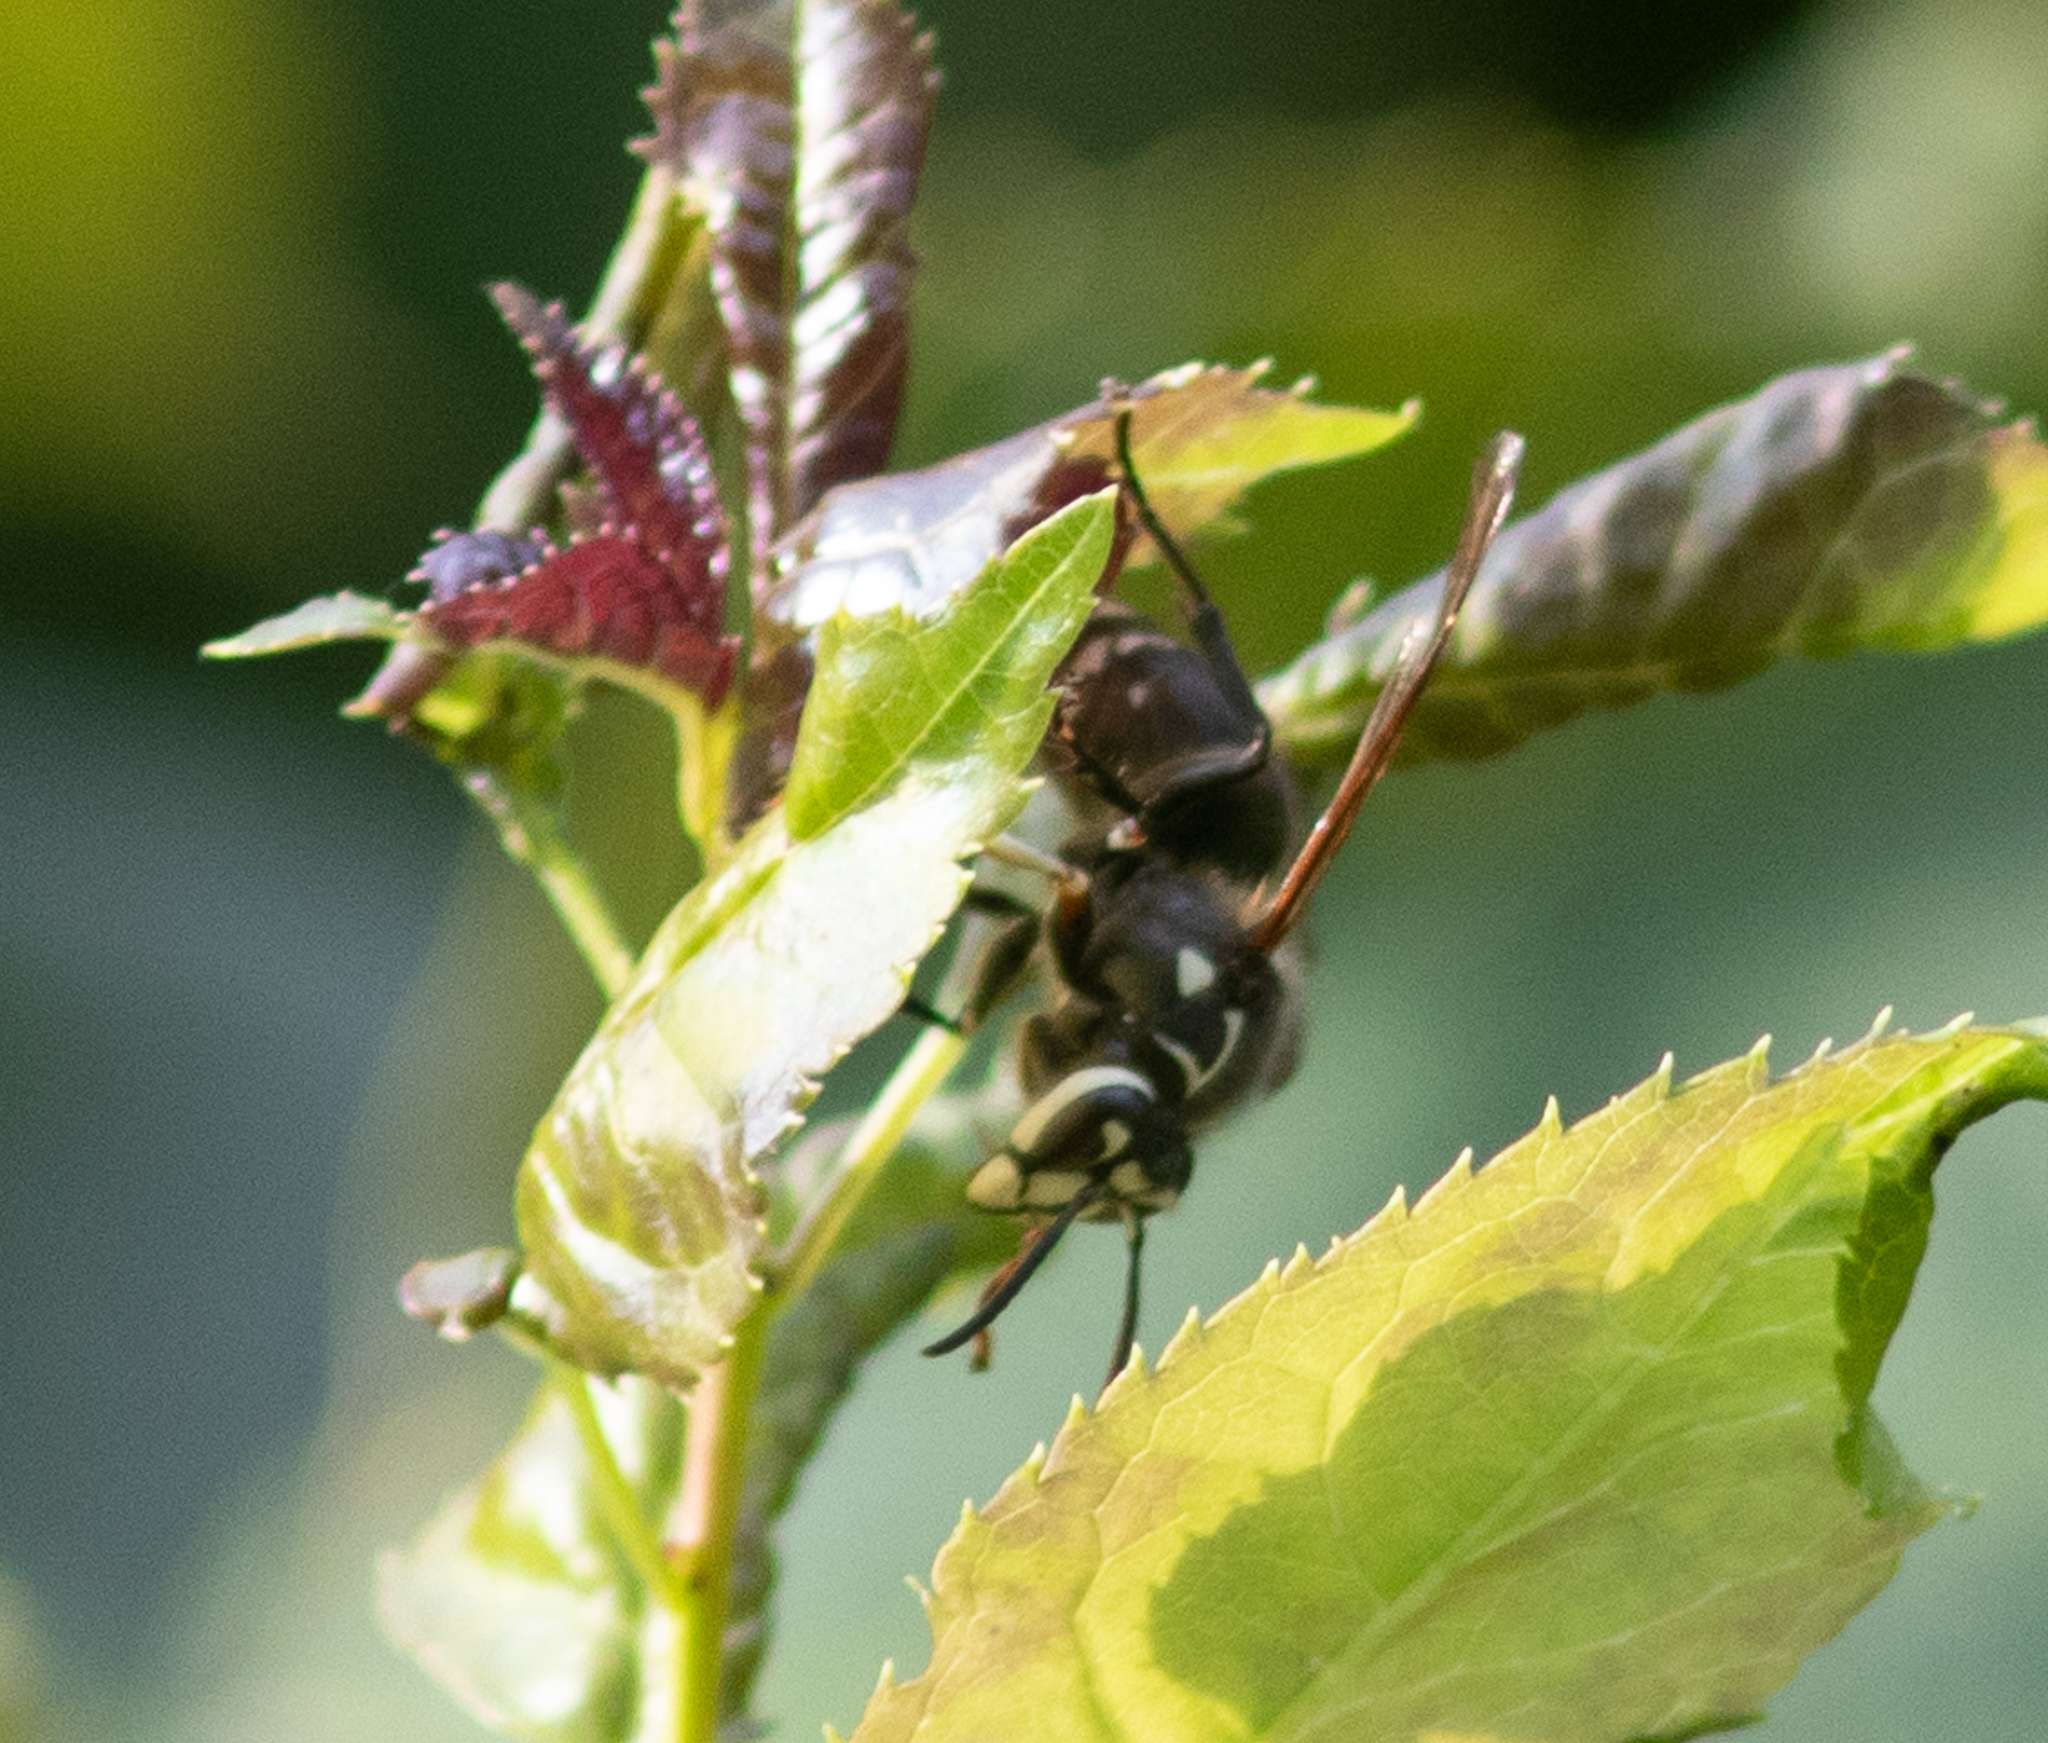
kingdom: Animalia
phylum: Arthropoda
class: Insecta
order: Hymenoptera
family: Vespidae
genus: Dolichovespula
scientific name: Dolichovespula maculata
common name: Bald-faced hornet
